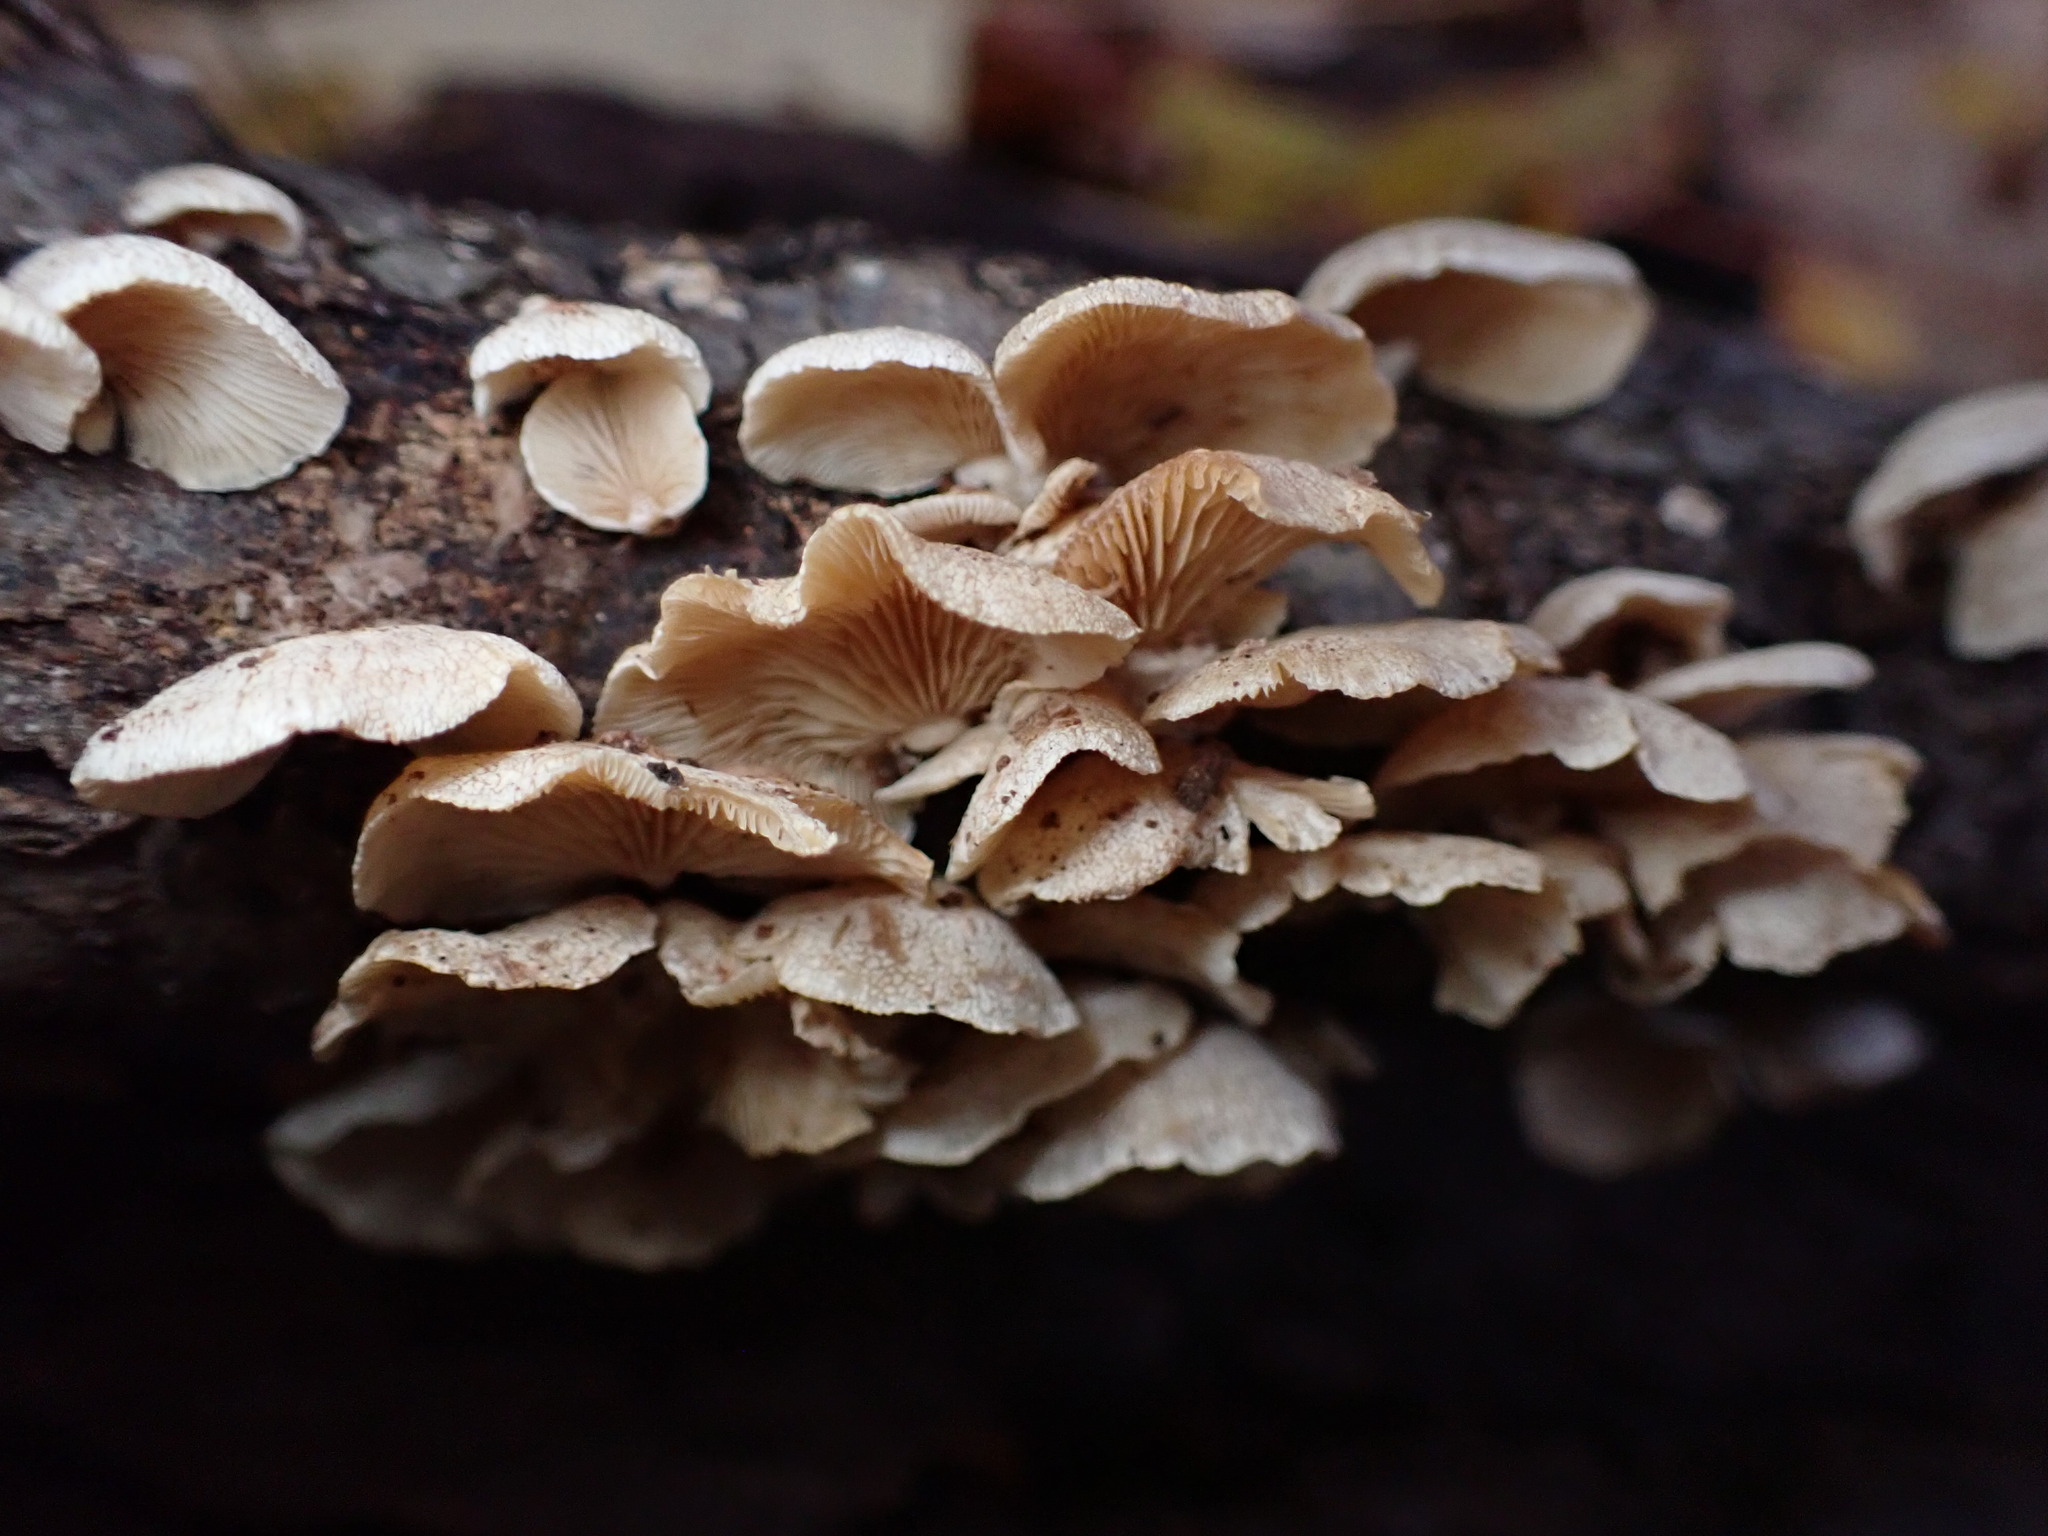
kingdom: Fungi
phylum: Basidiomycota
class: Agaricomycetes
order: Agaricales
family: Mycenaceae
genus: Panellus
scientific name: Panellus stipticus
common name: Bitter oysterling
